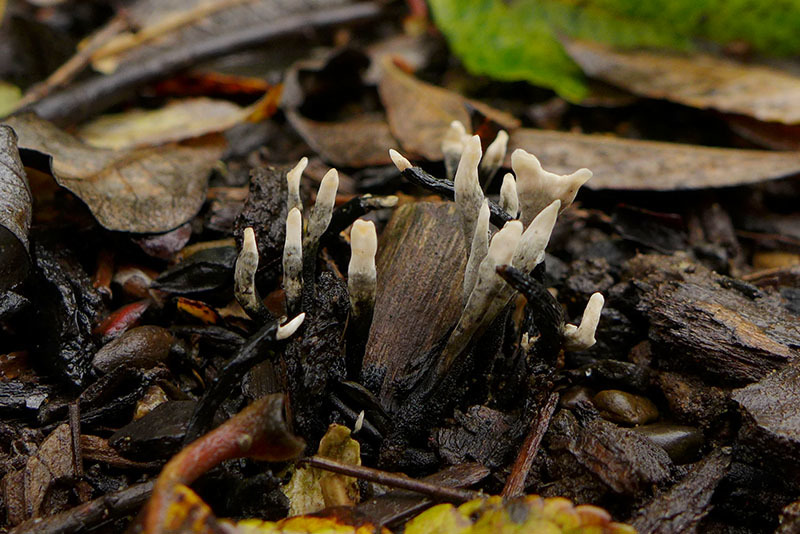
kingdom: Fungi
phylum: Ascomycota
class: Sordariomycetes
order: Xylariales
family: Xylariaceae
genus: Xylaria
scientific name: Xylaria hypoxylon
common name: Candle-snuff fungus
